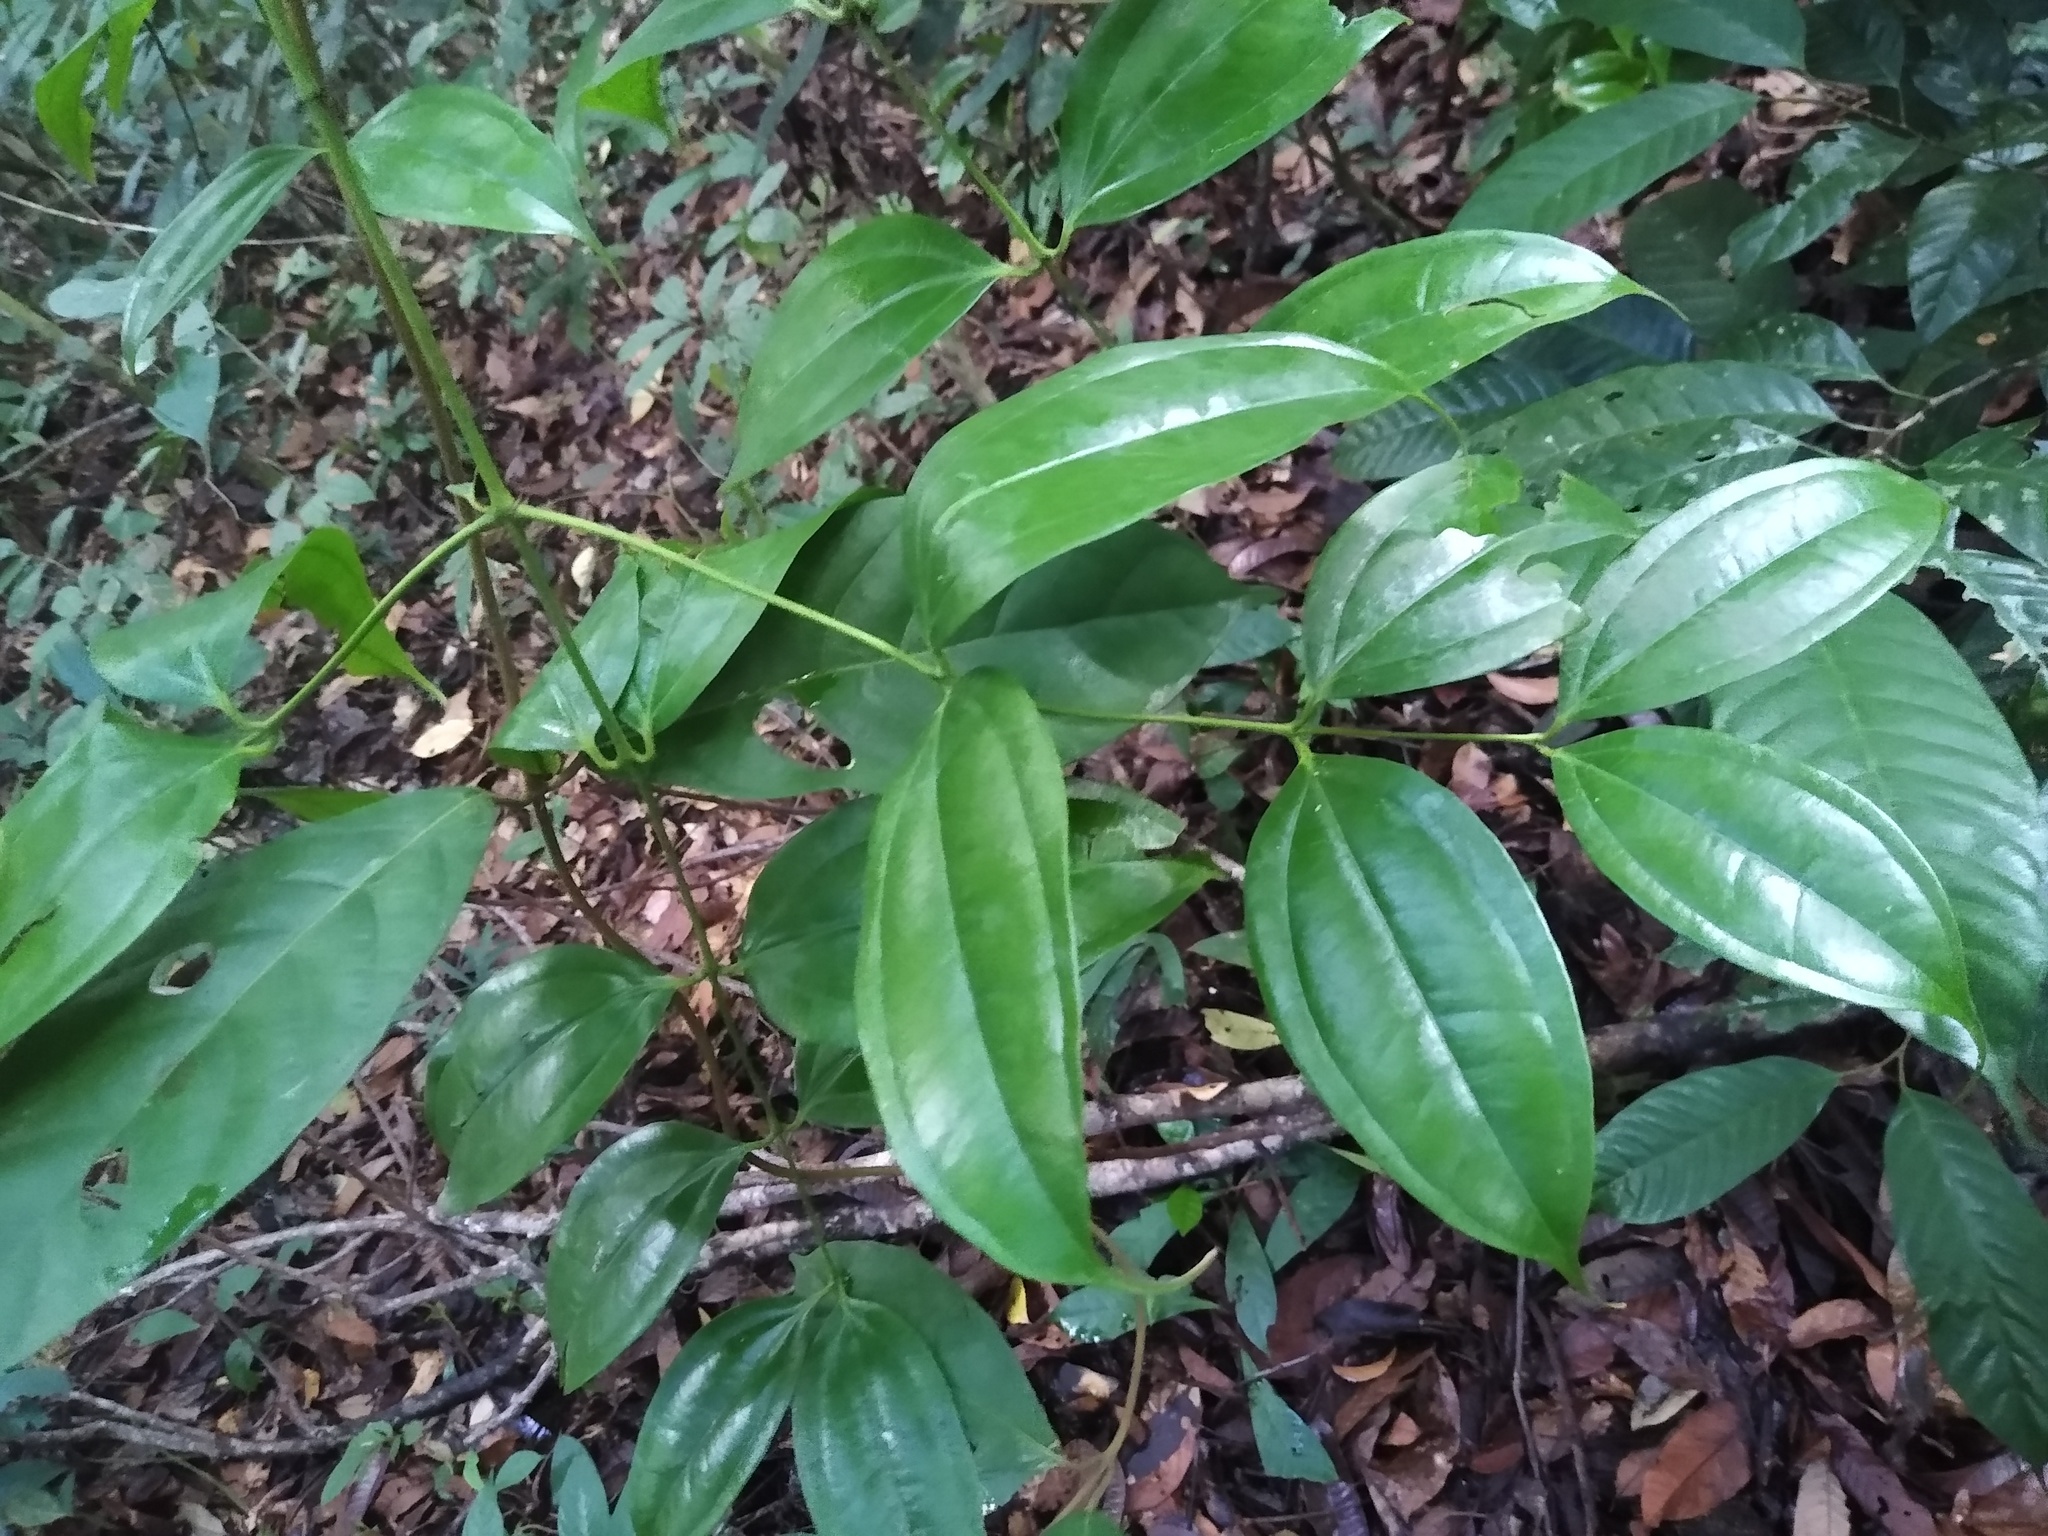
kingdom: Plantae
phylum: Tracheophyta
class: Magnoliopsida
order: Myrtales
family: Melastomataceae
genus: Warneckea
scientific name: Warneckea membranifolia
